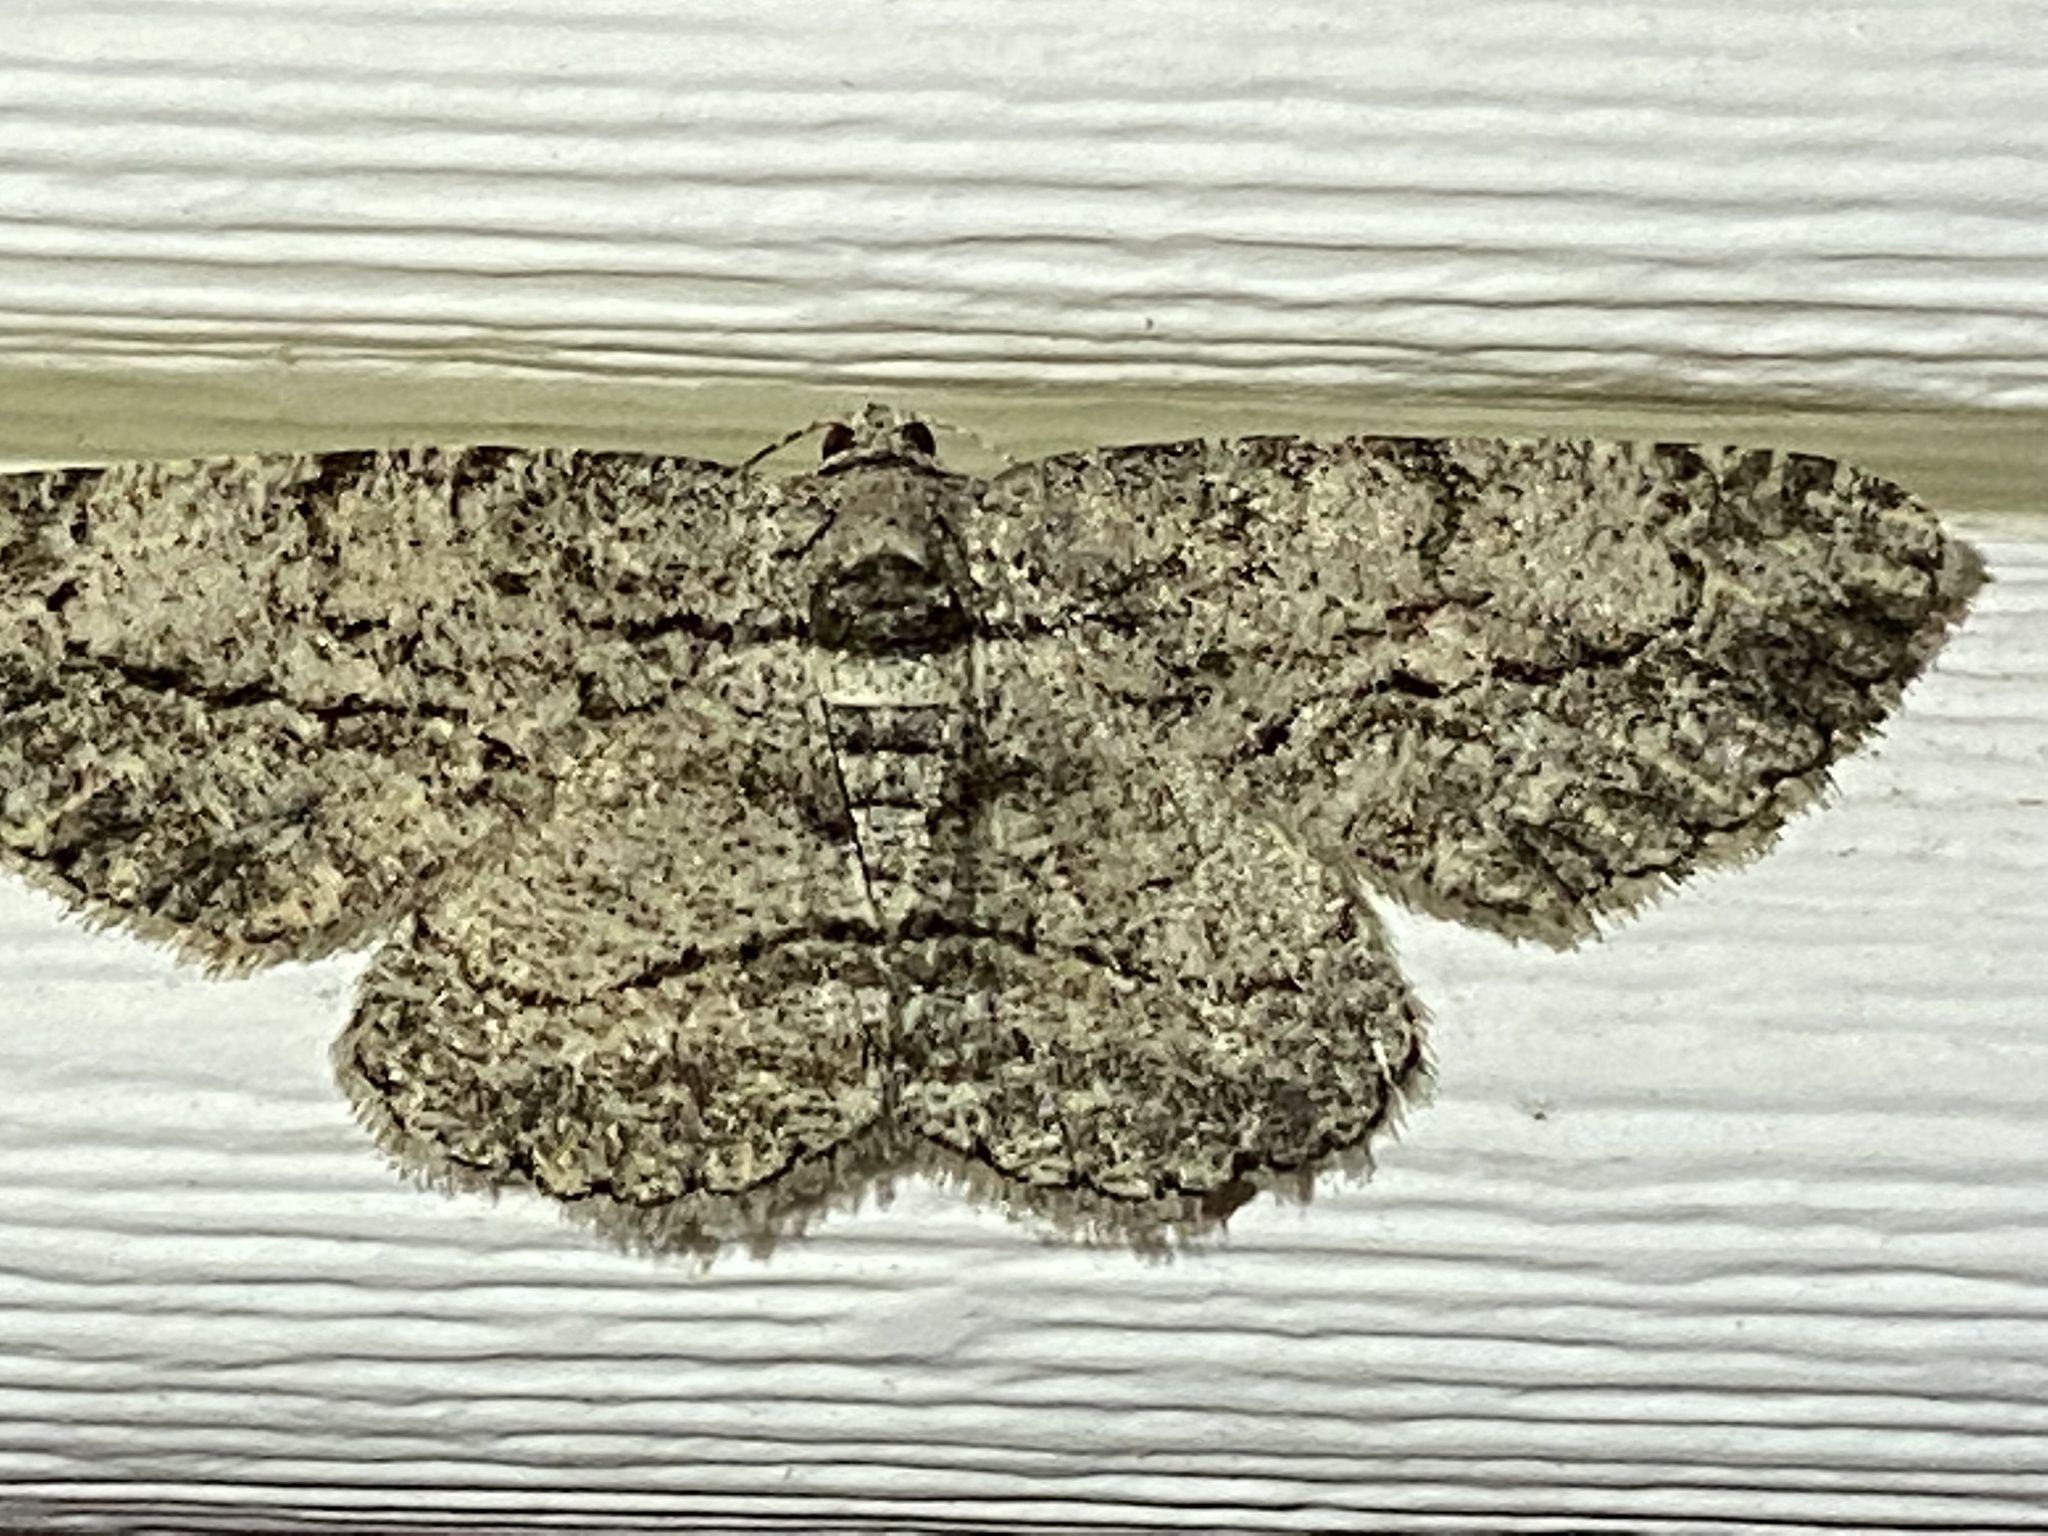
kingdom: Animalia
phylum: Arthropoda
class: Insecta
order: Lepidoptera
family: Geometridae
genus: Anavitrinella
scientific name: Anavitrinella pampinaria
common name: Common gray
